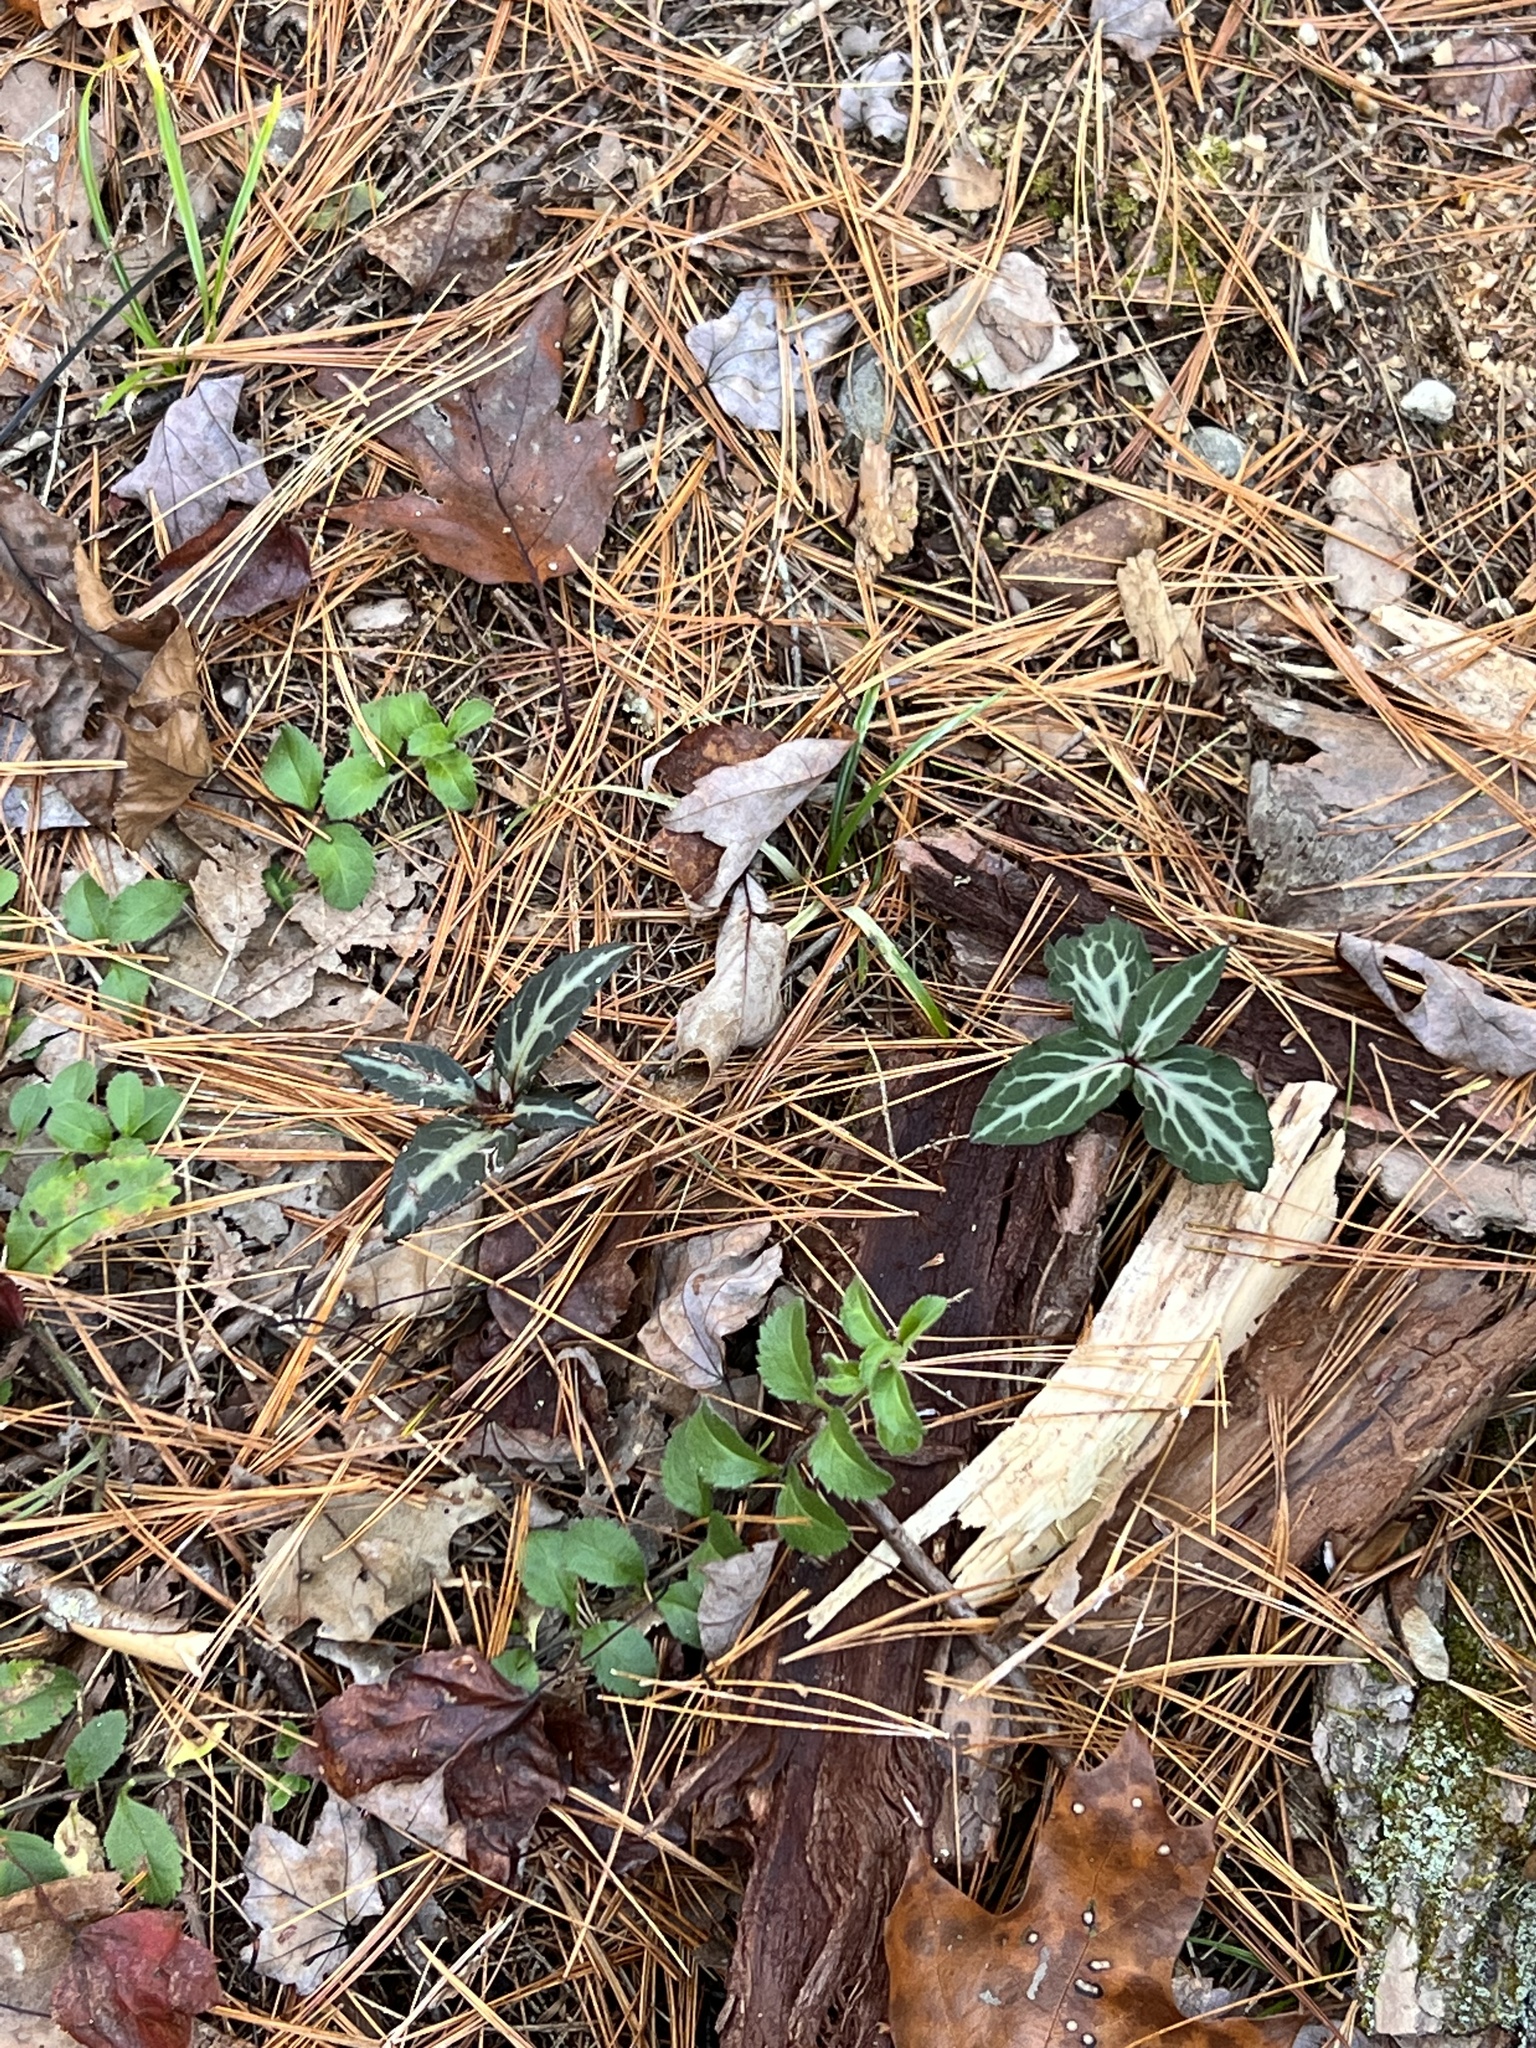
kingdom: Plantae
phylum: Tracheophyta
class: Magnoliopsida
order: Ericales
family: Ericaceae
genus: Chimaphila
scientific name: Chimaphila maculata
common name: Spotted pipsissewa
